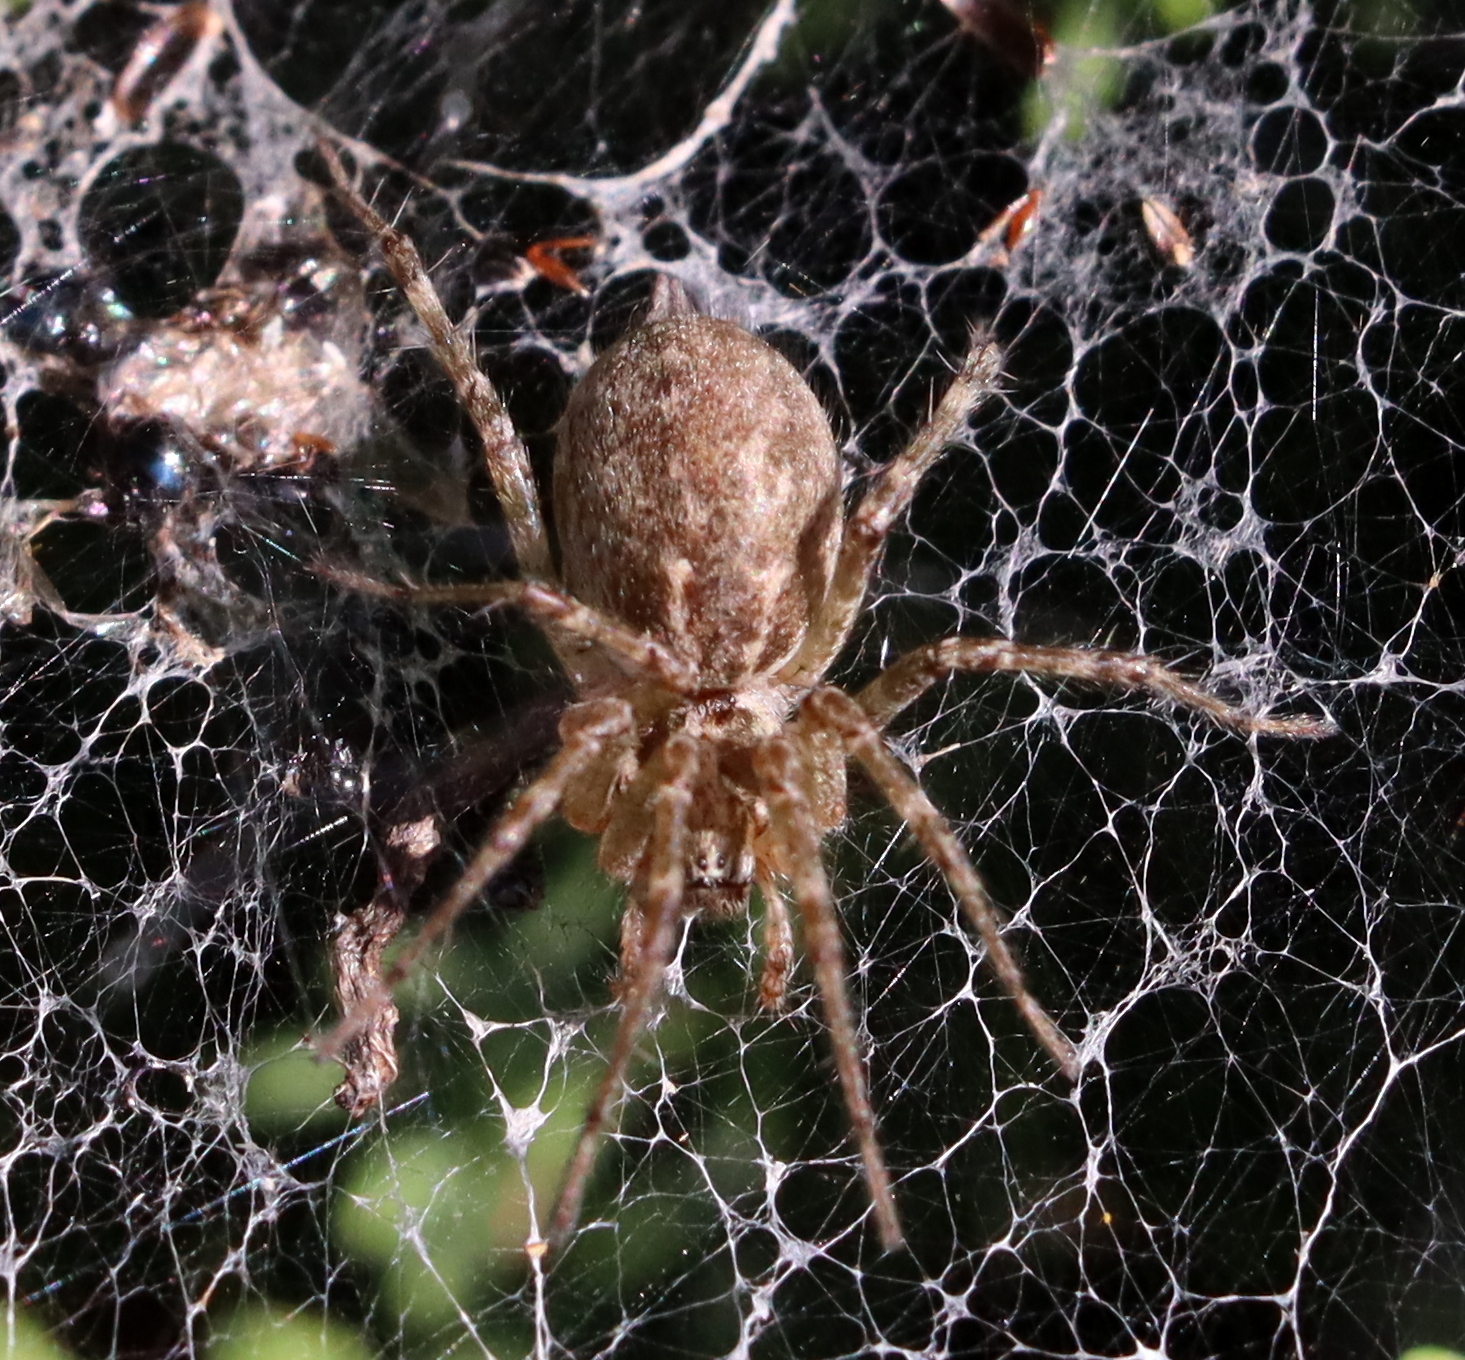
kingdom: Animalia
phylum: Arthropoda
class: Arachnida
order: Araneae
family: Agelenidae
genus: Allagelena
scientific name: Allagelena gracilens
